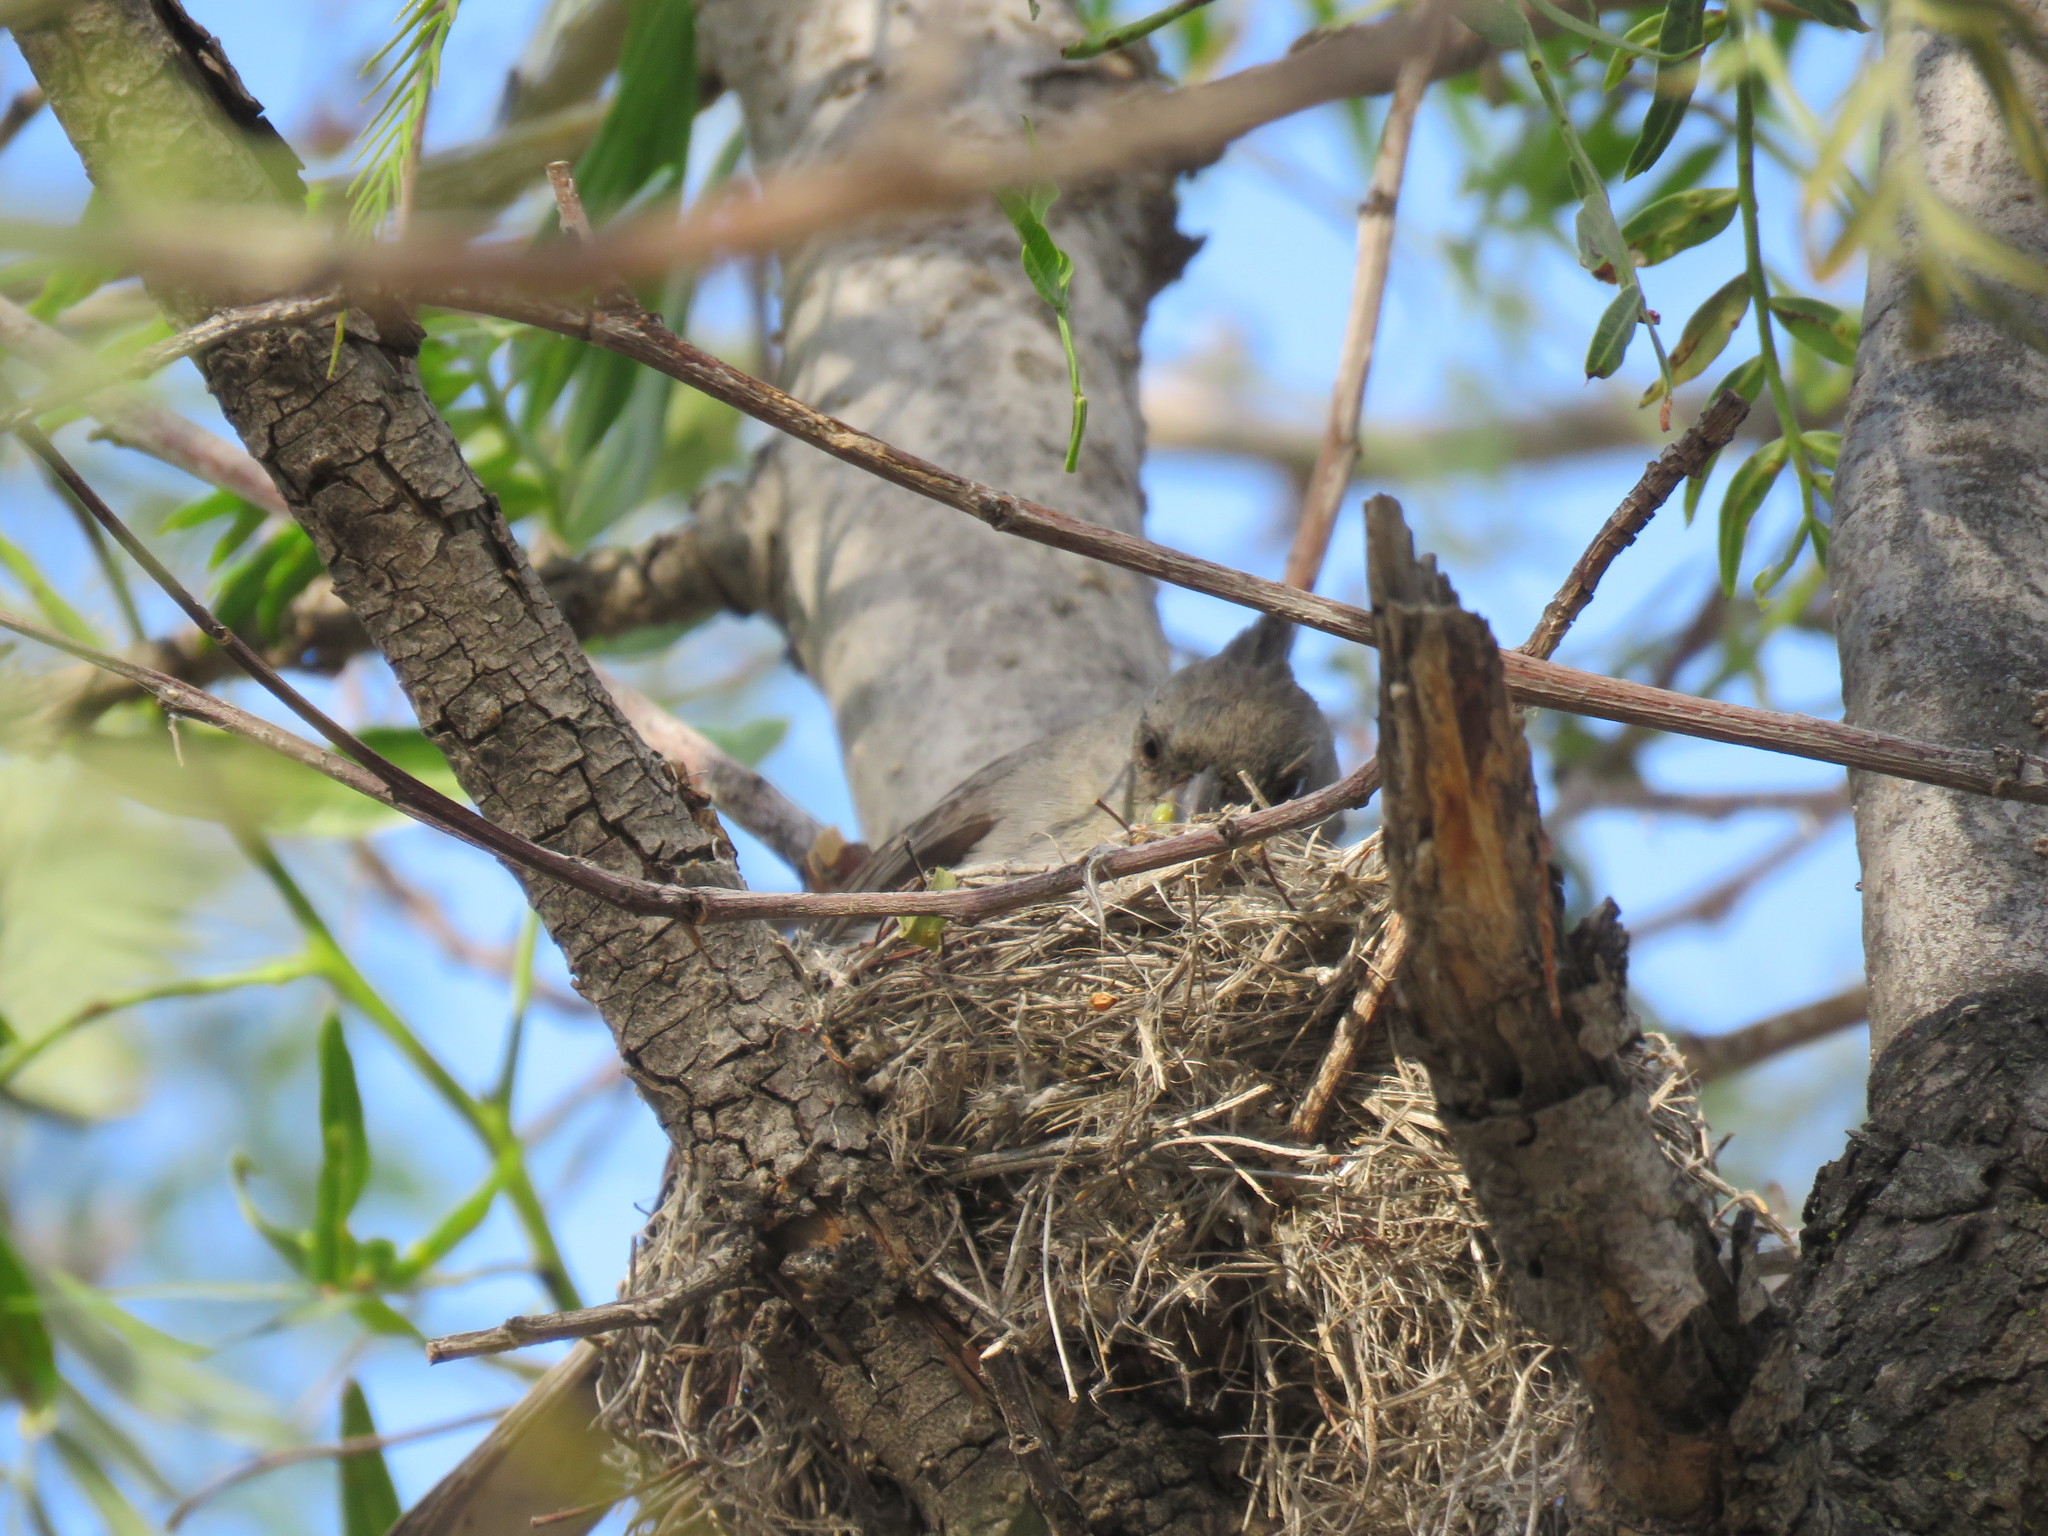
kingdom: Animalia
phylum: Chordata
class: Aves
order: Passeriformes
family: Thraupidae
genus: Lophospingus
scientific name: Lophospingus griseocristatus
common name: Grey-crested finch
